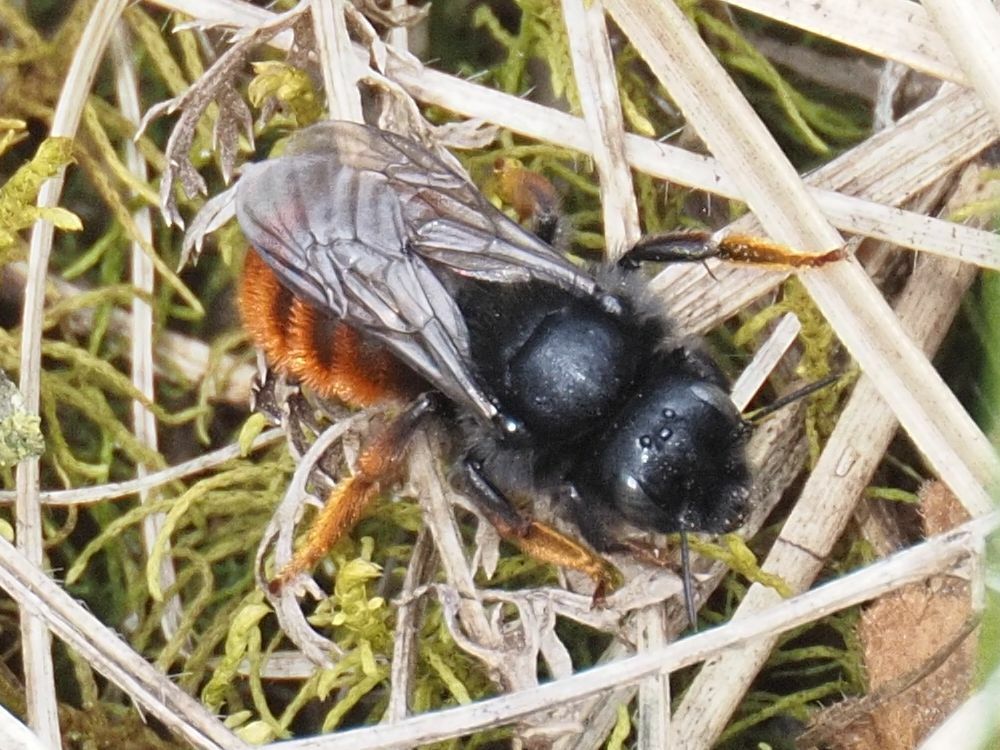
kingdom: Animalia
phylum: Arthropoda
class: Insecta
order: Hymenoptera
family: Megachilidae
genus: Osmia
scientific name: Osmia bicolor
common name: Red-tailed mason bee
